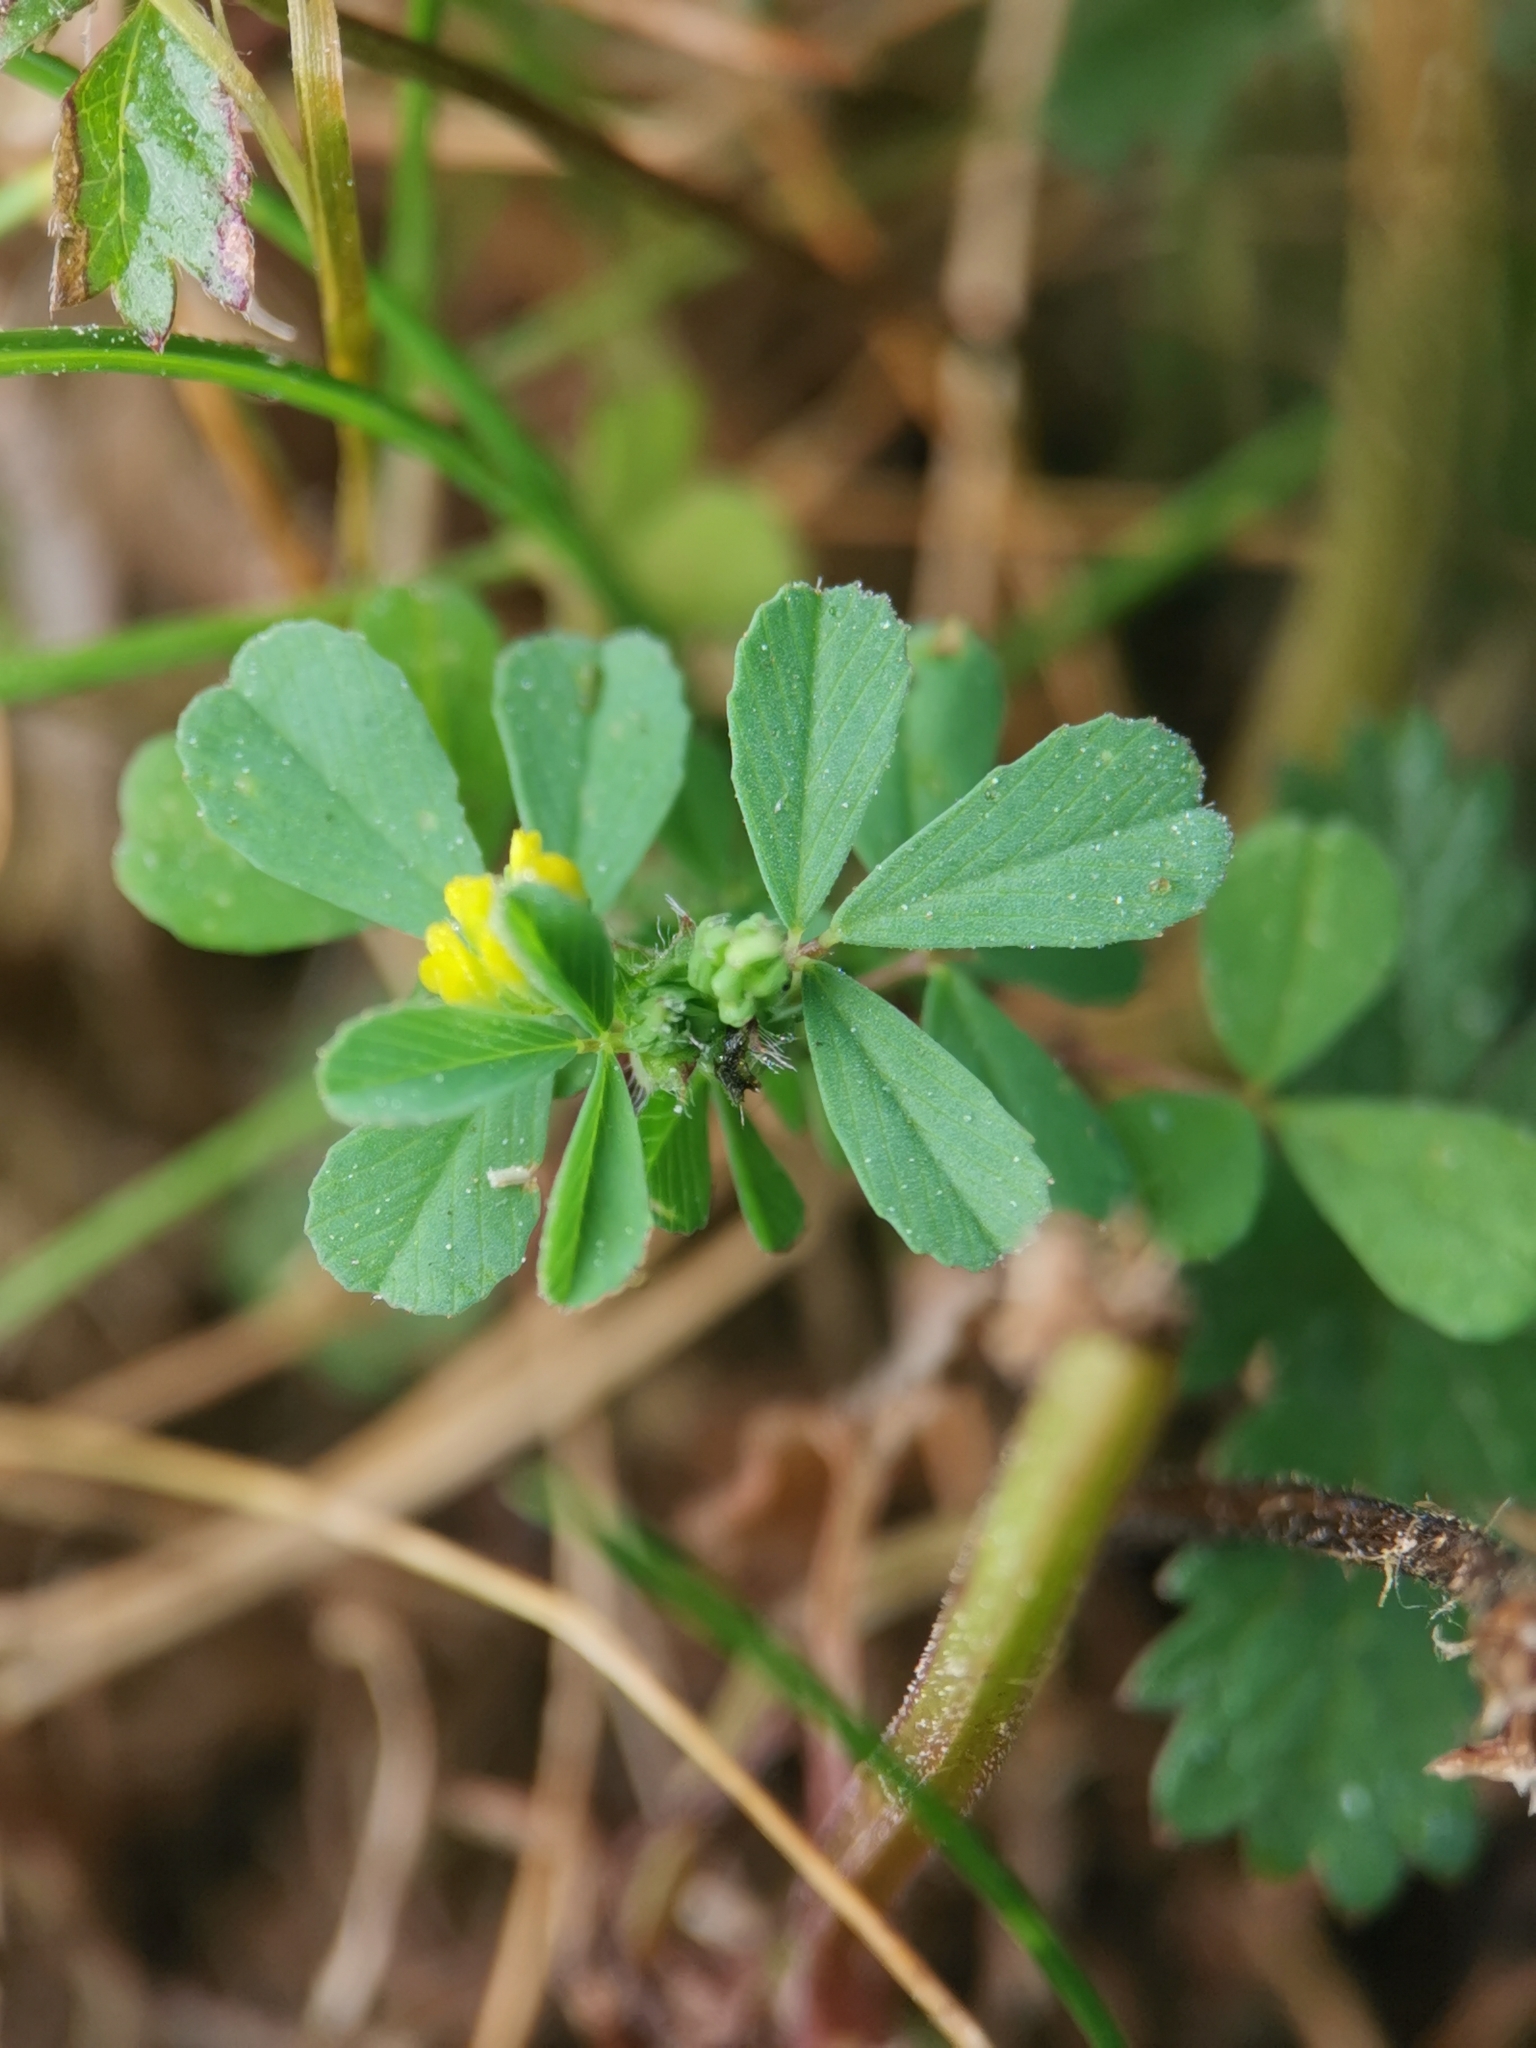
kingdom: Plantae
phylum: Tracheophyta
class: Magnoliopsida
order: Fabales
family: Fabaceae
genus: Trifolium
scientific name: Trifolium dubium
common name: Suckling clover
